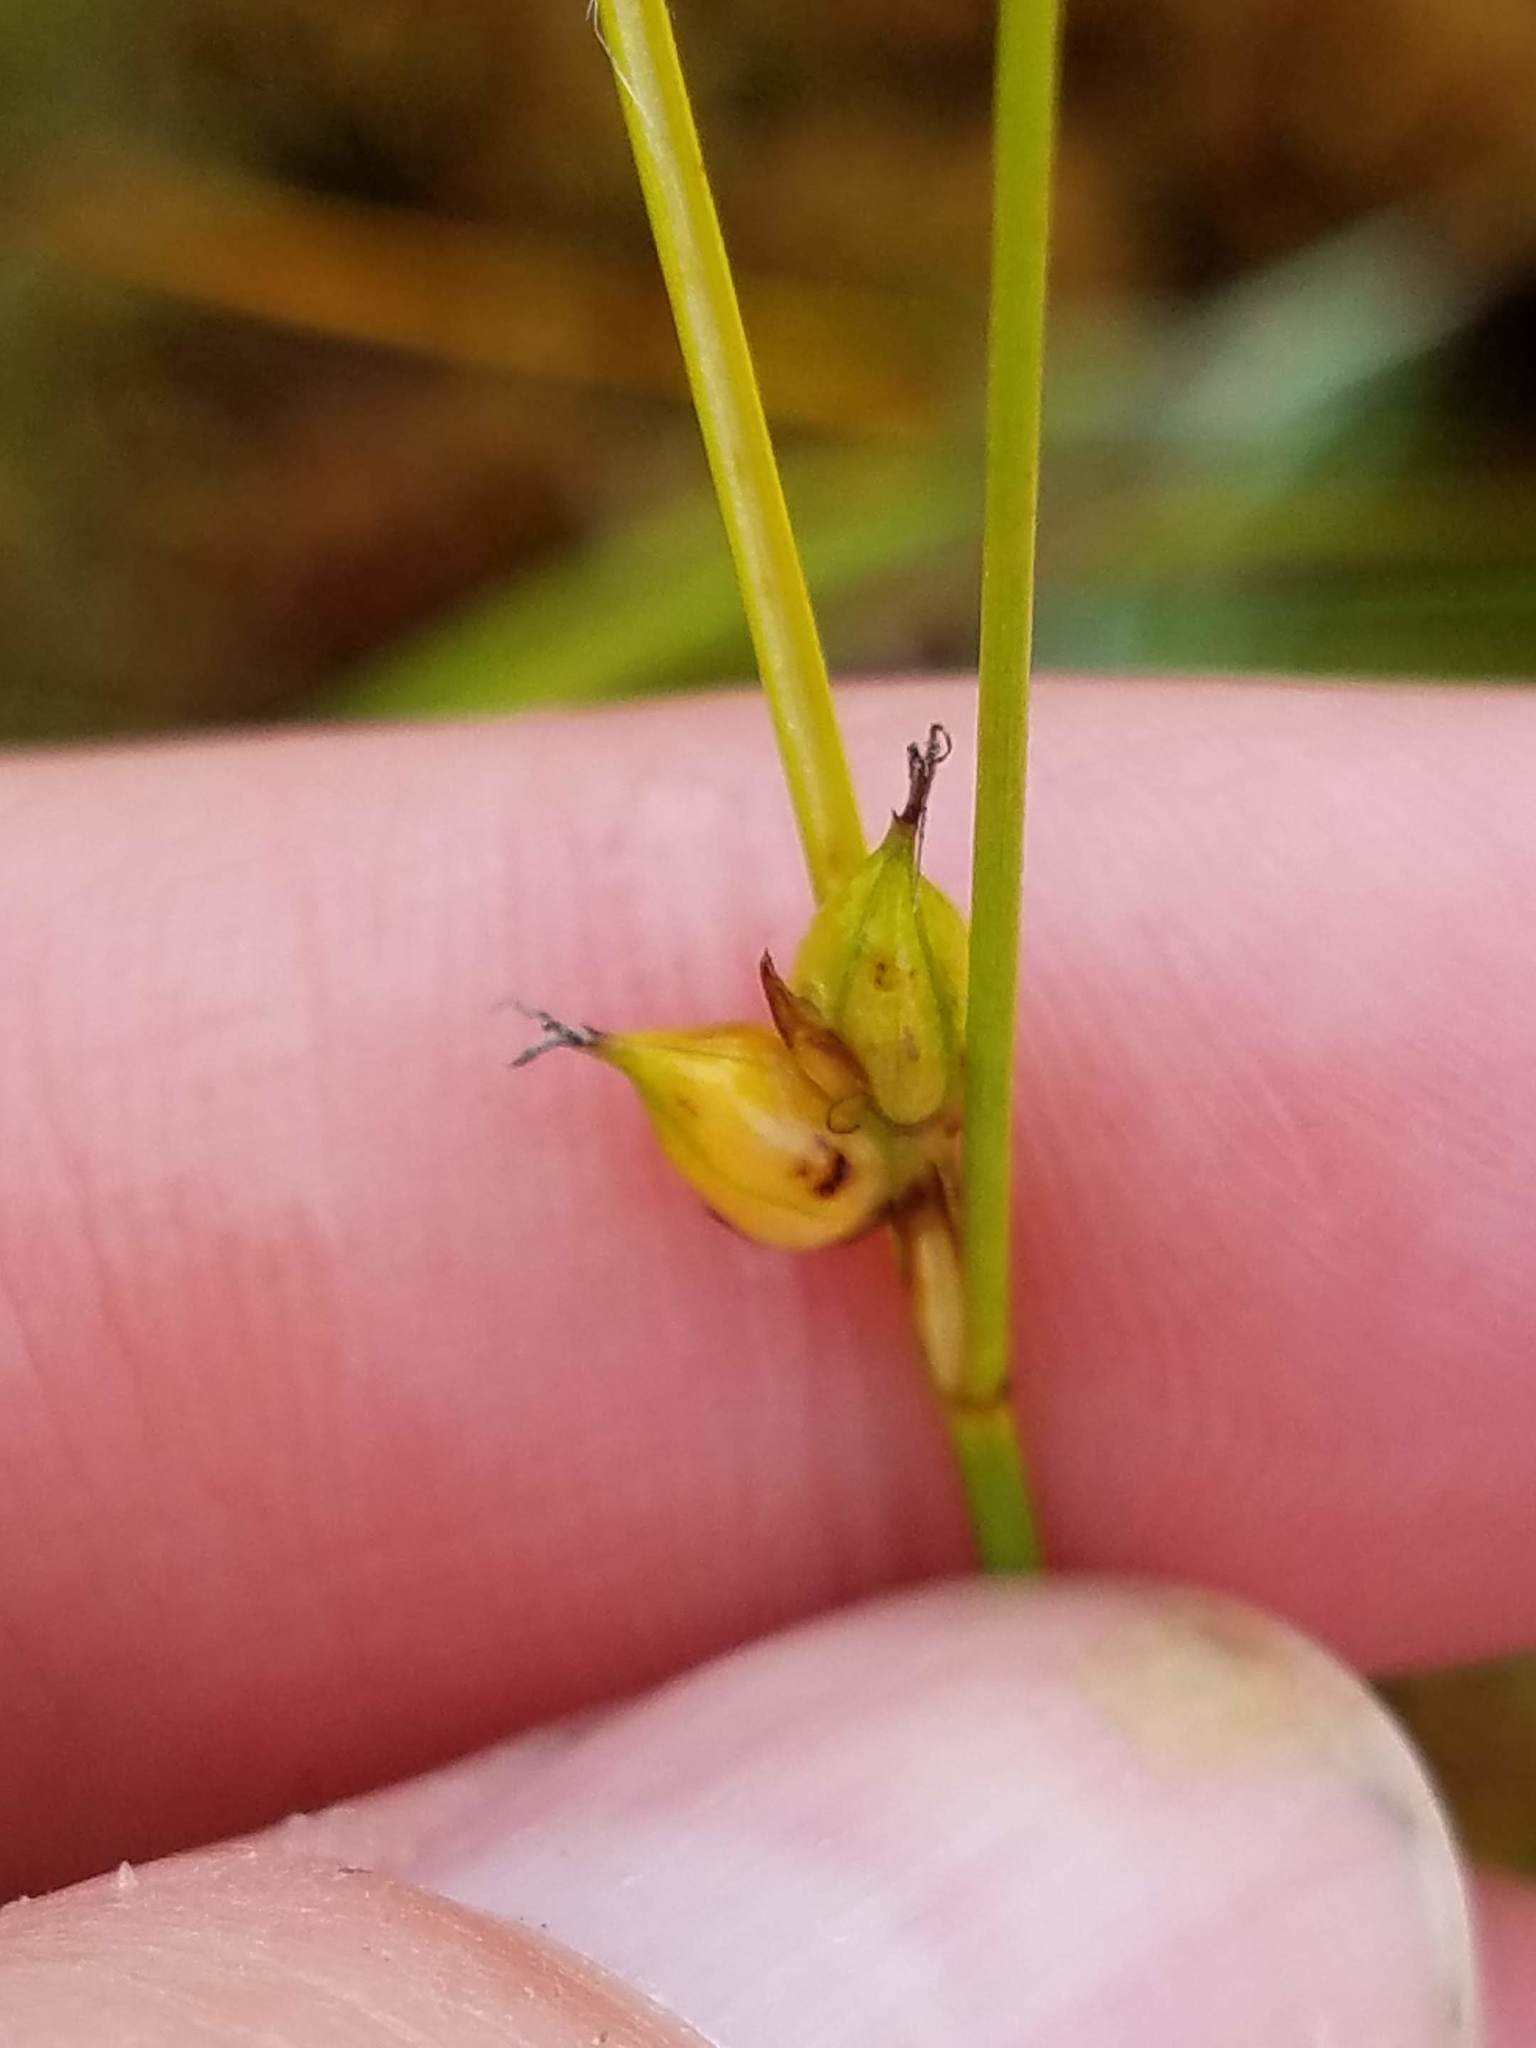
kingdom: Plantae
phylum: Tracheophyta
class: Liliopsida
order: Poales
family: Cyperaceae
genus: Carex
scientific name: Carex oligosperma
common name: Few-seed sedge
